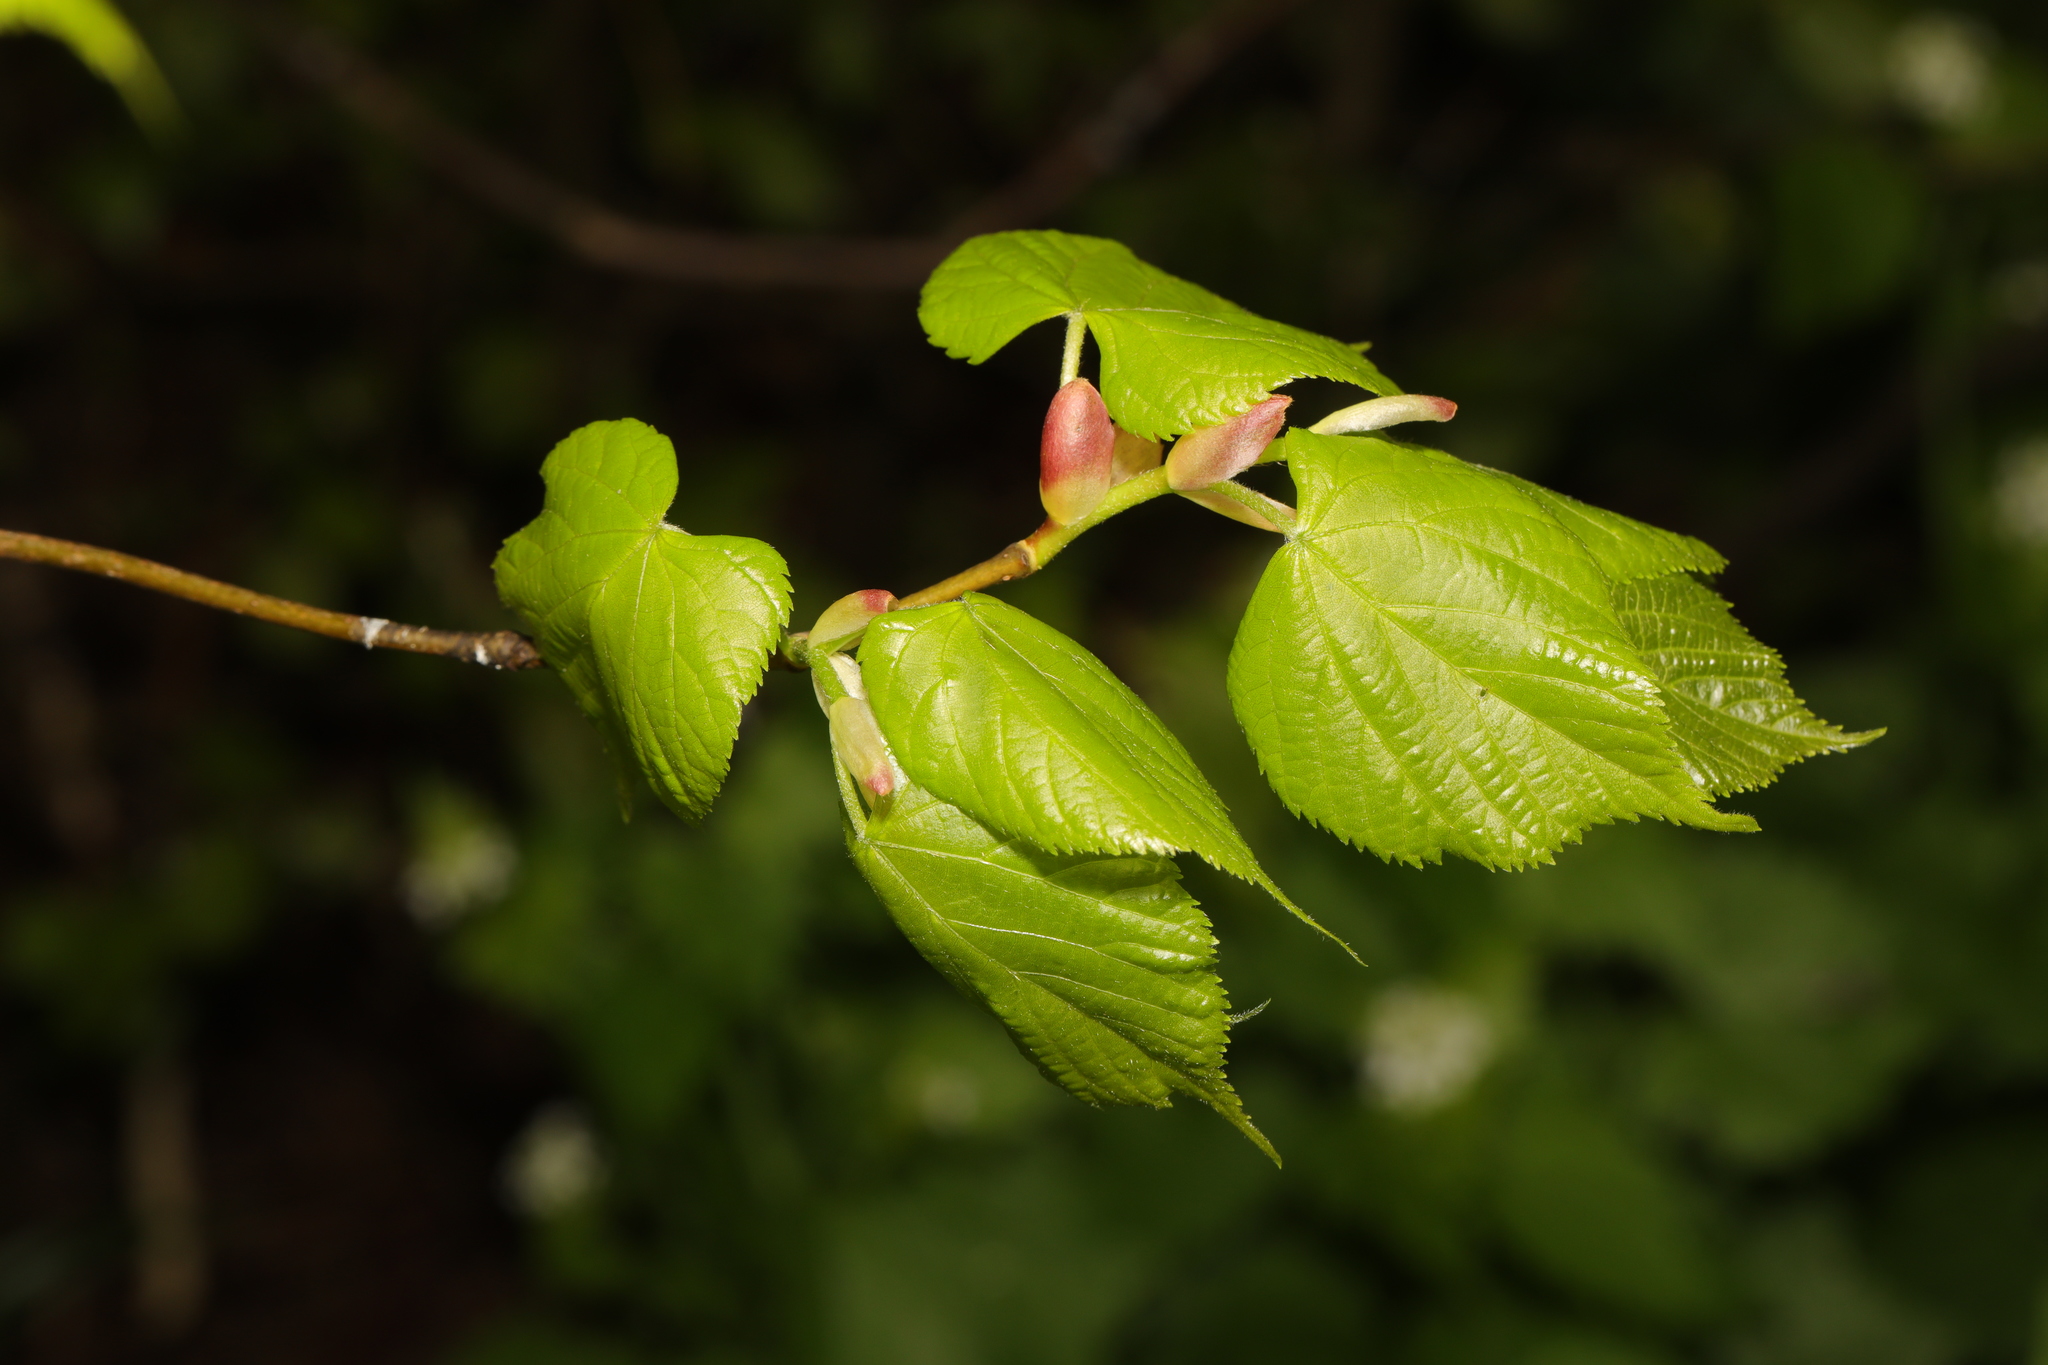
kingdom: Plantae
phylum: Tracheophyta
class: Magnoliopsida
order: Malvales
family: Malvaceae
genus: Tilia
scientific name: Tilia europaea
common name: European linden
